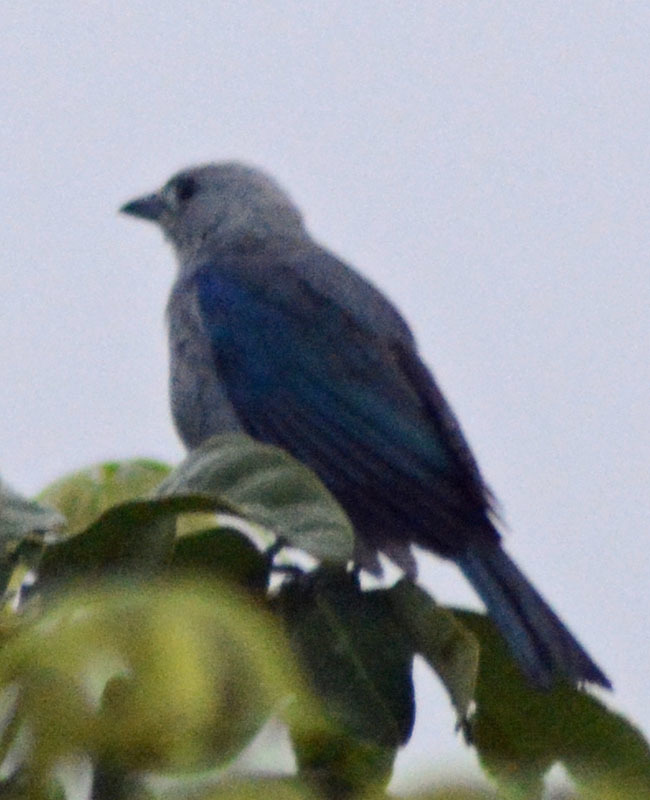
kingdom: Animalia
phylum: Chordata
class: Aves
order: Passeriformes
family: Thraupidae
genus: Thraupis
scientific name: Thraupis episcopus
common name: Blue-grey tanager
